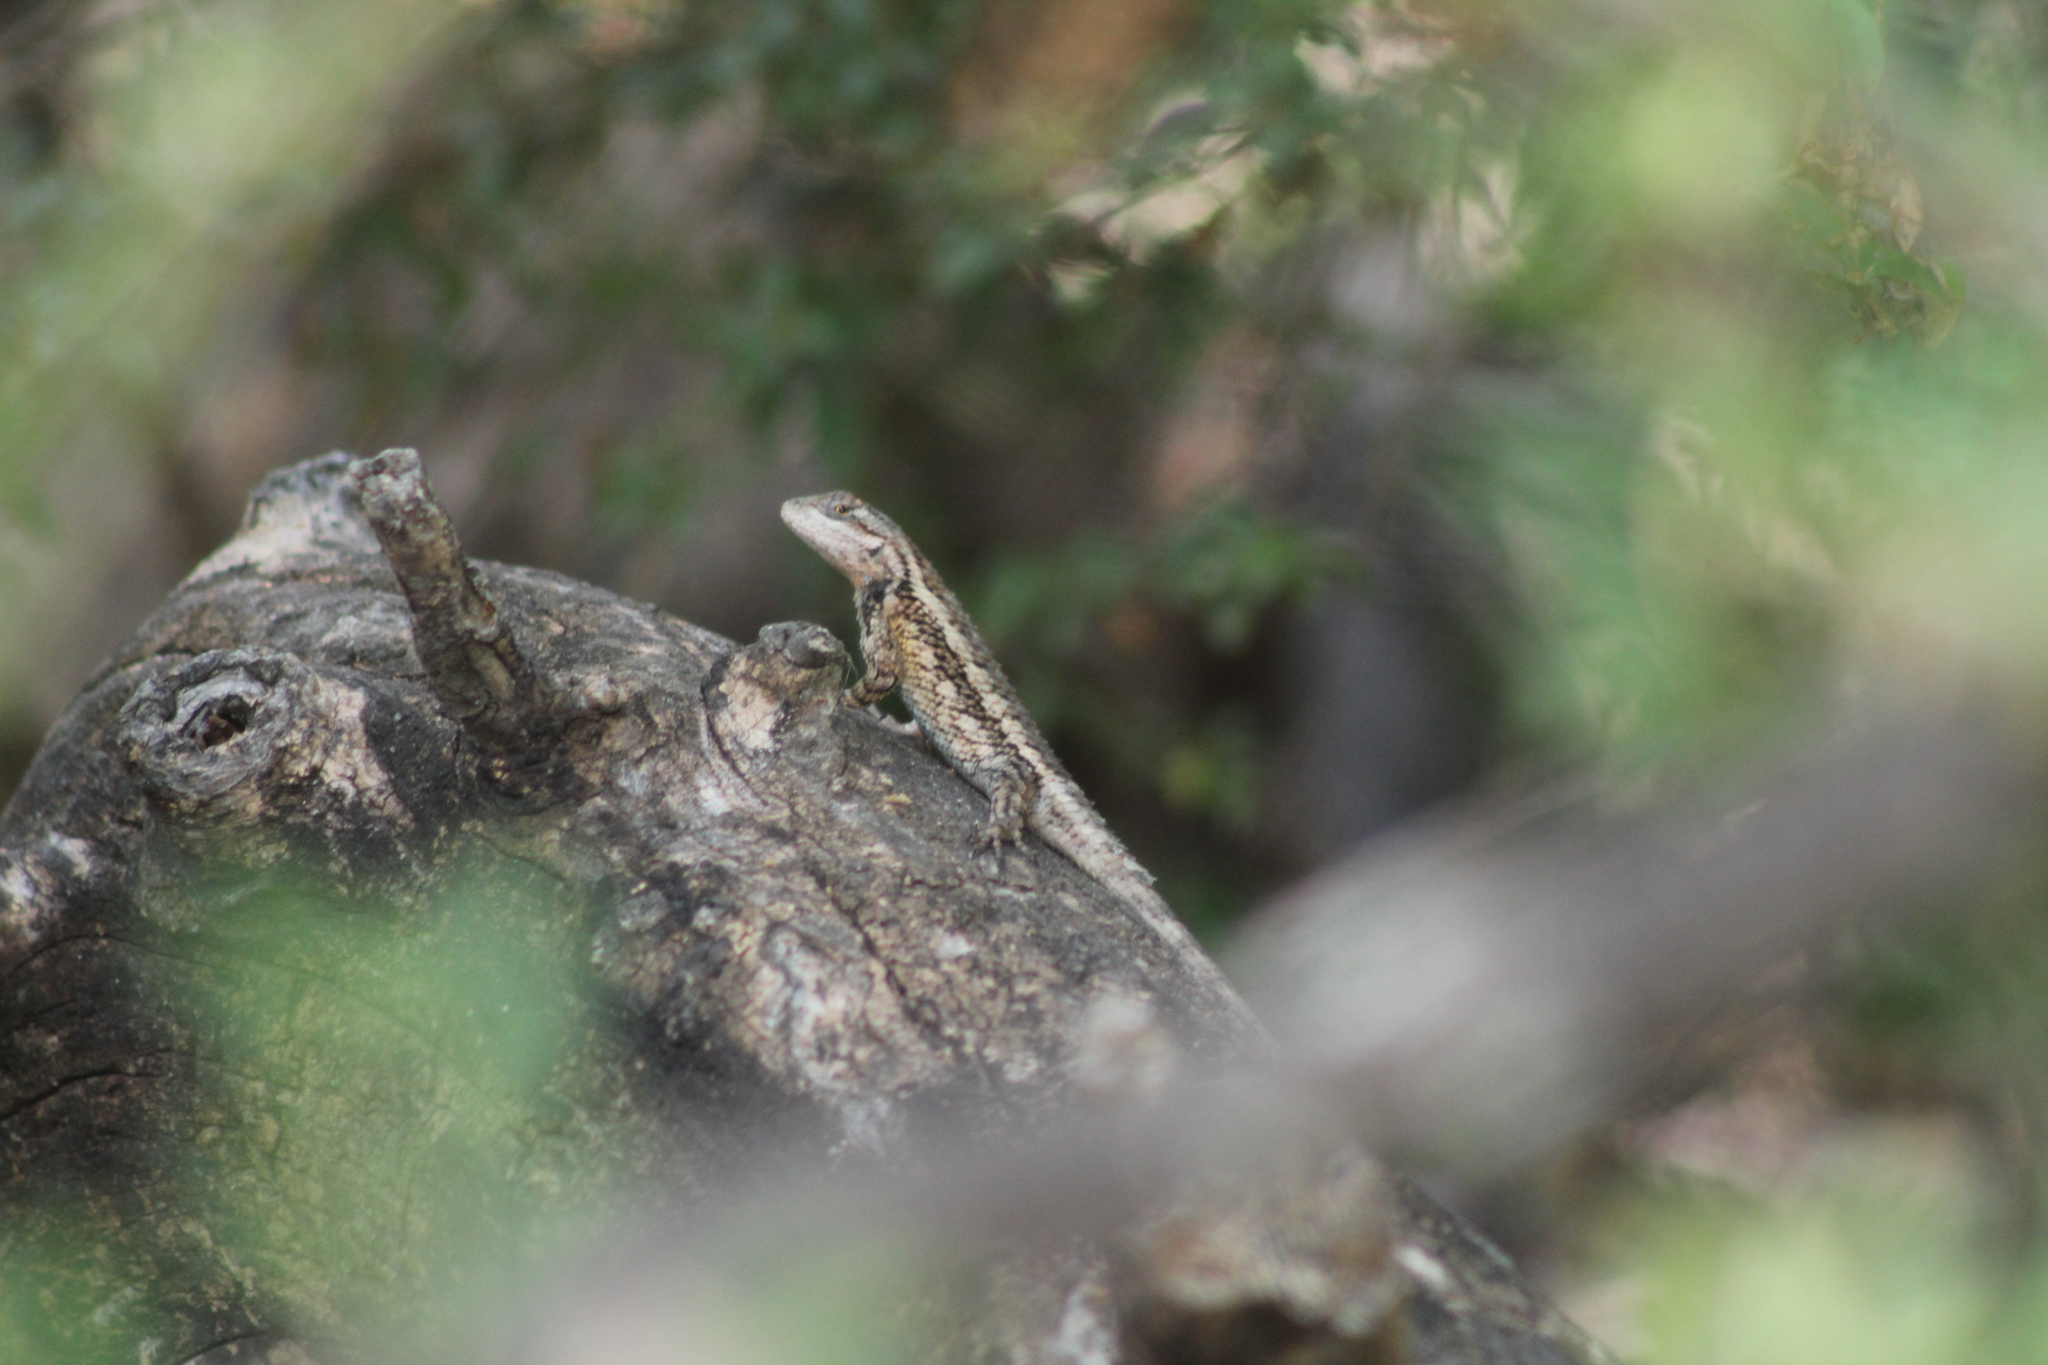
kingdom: Animalia
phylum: Chordata
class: Squamata
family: Phrynosomatidae
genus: Sceloporus
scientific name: Sceloporus olivaceus
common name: Texas spiny lizard
